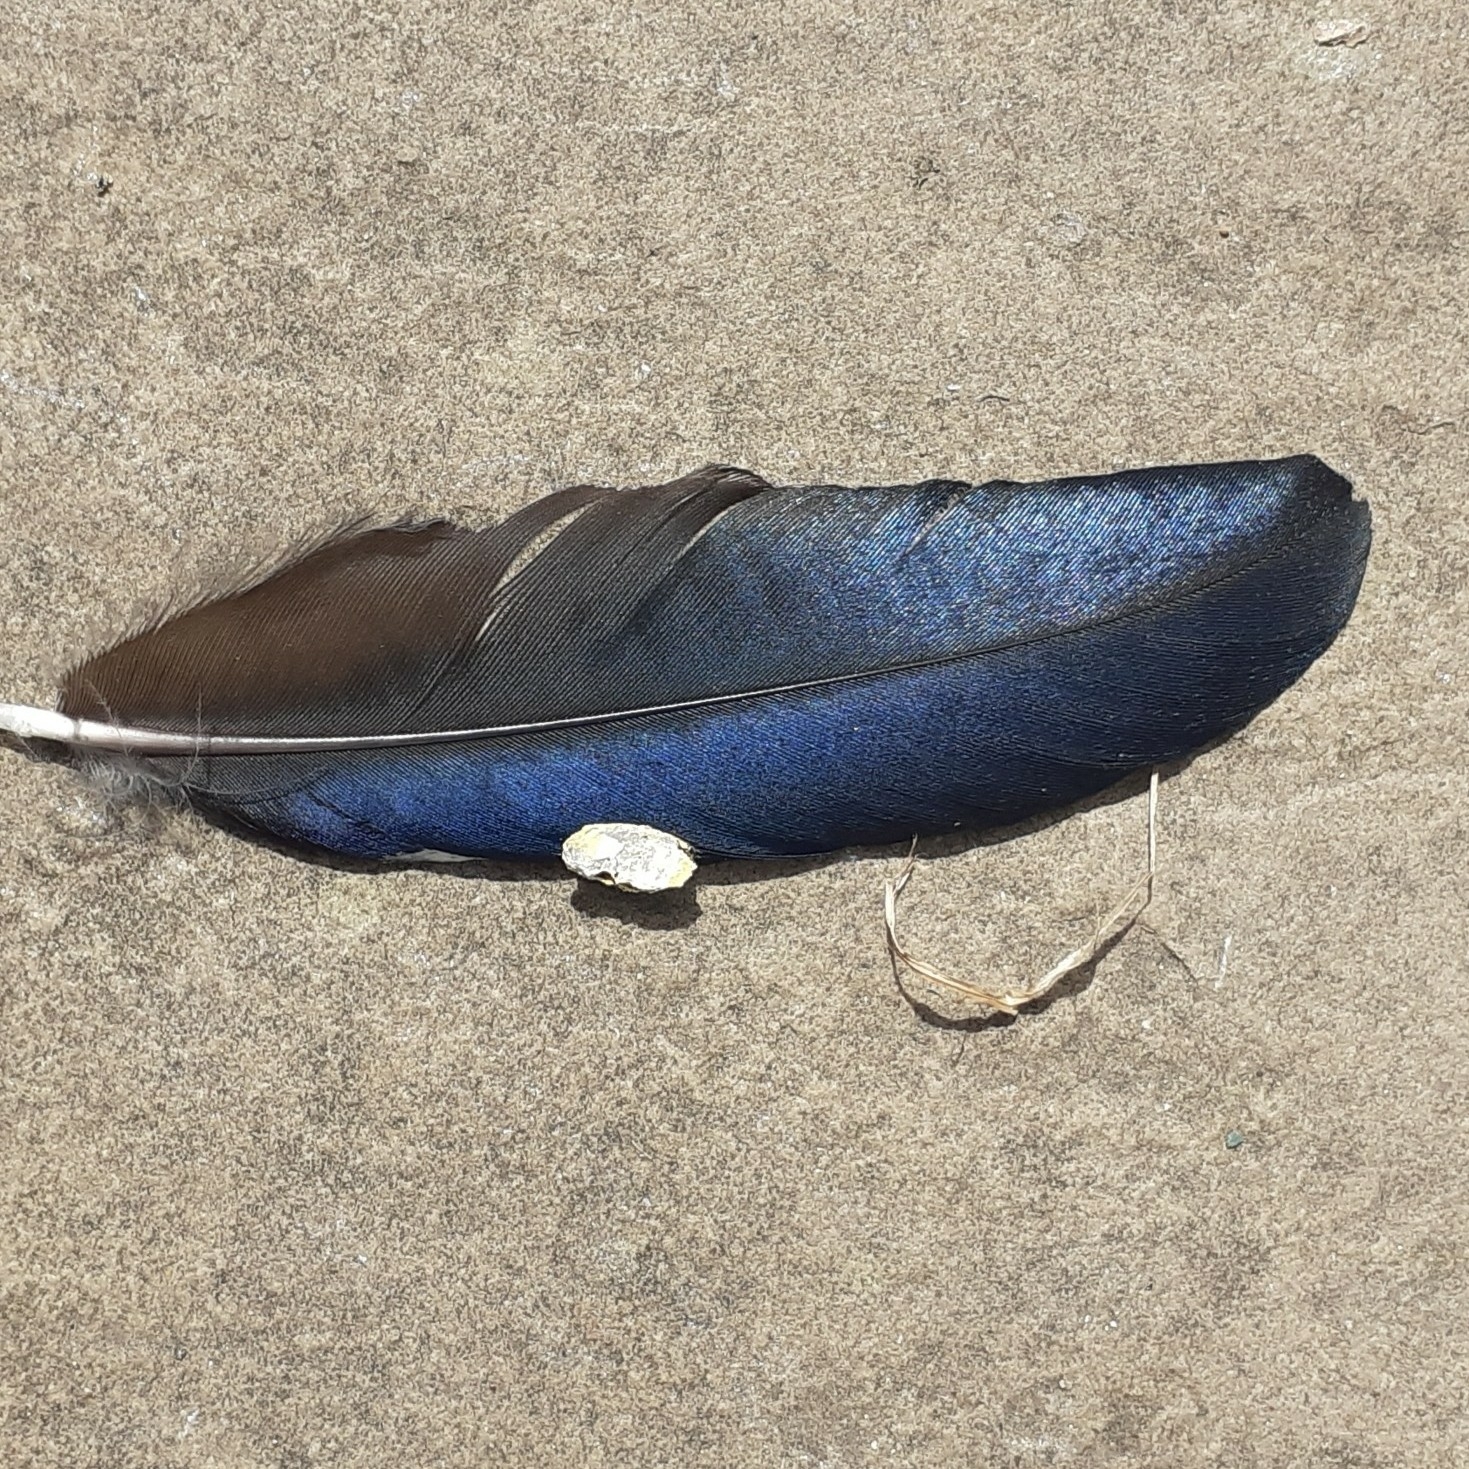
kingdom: Animalia
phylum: Chordata
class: Aves
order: Passeriformes
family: Corvidae
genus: Pica
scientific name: Pica pica
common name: Eurasian magpie
